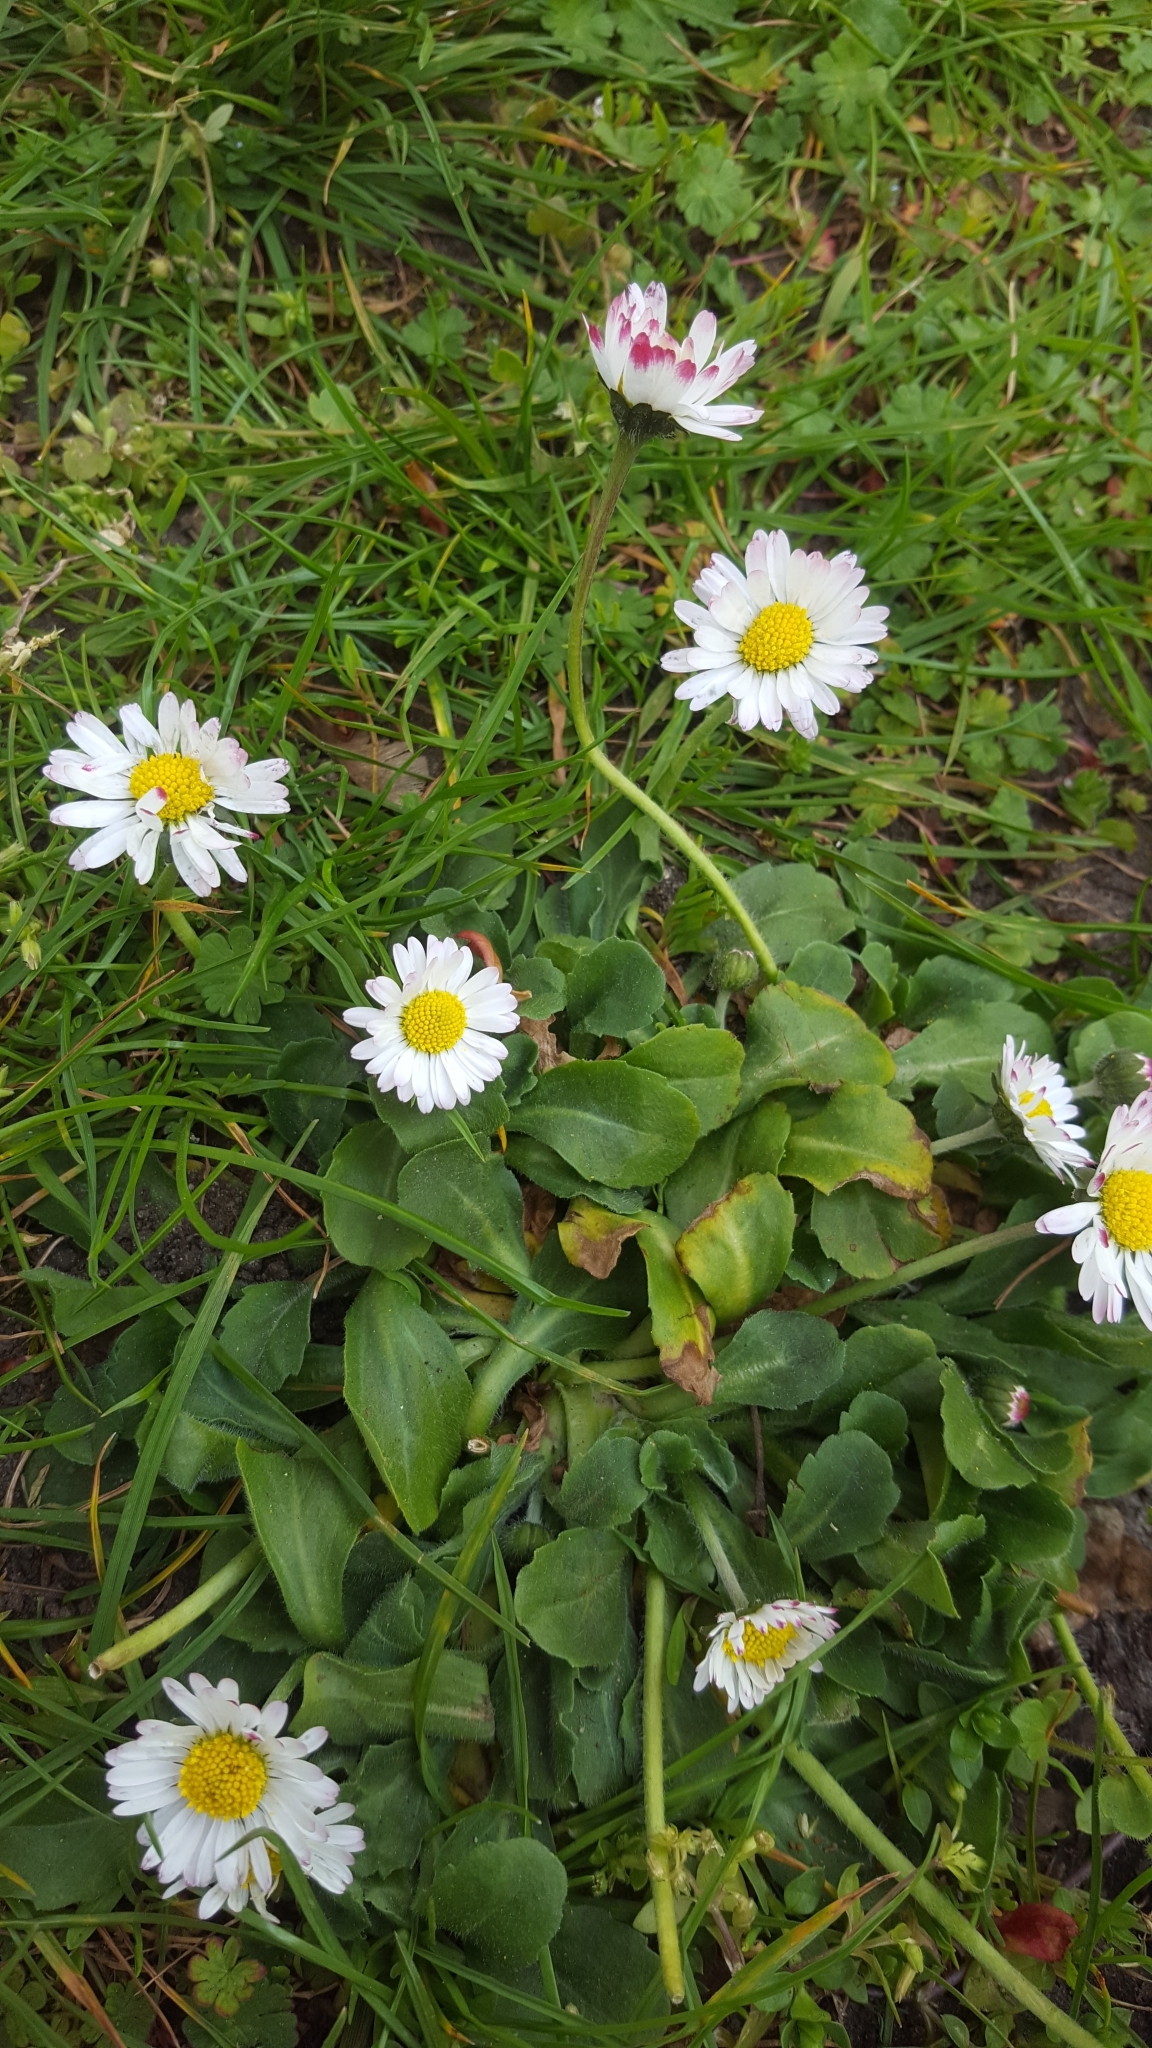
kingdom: Plantae
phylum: Tracheophyta
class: Magnoliopsida
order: Asterales
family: Asteraceae
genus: Bellis
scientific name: Bellis perennis
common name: Lawndaisy
